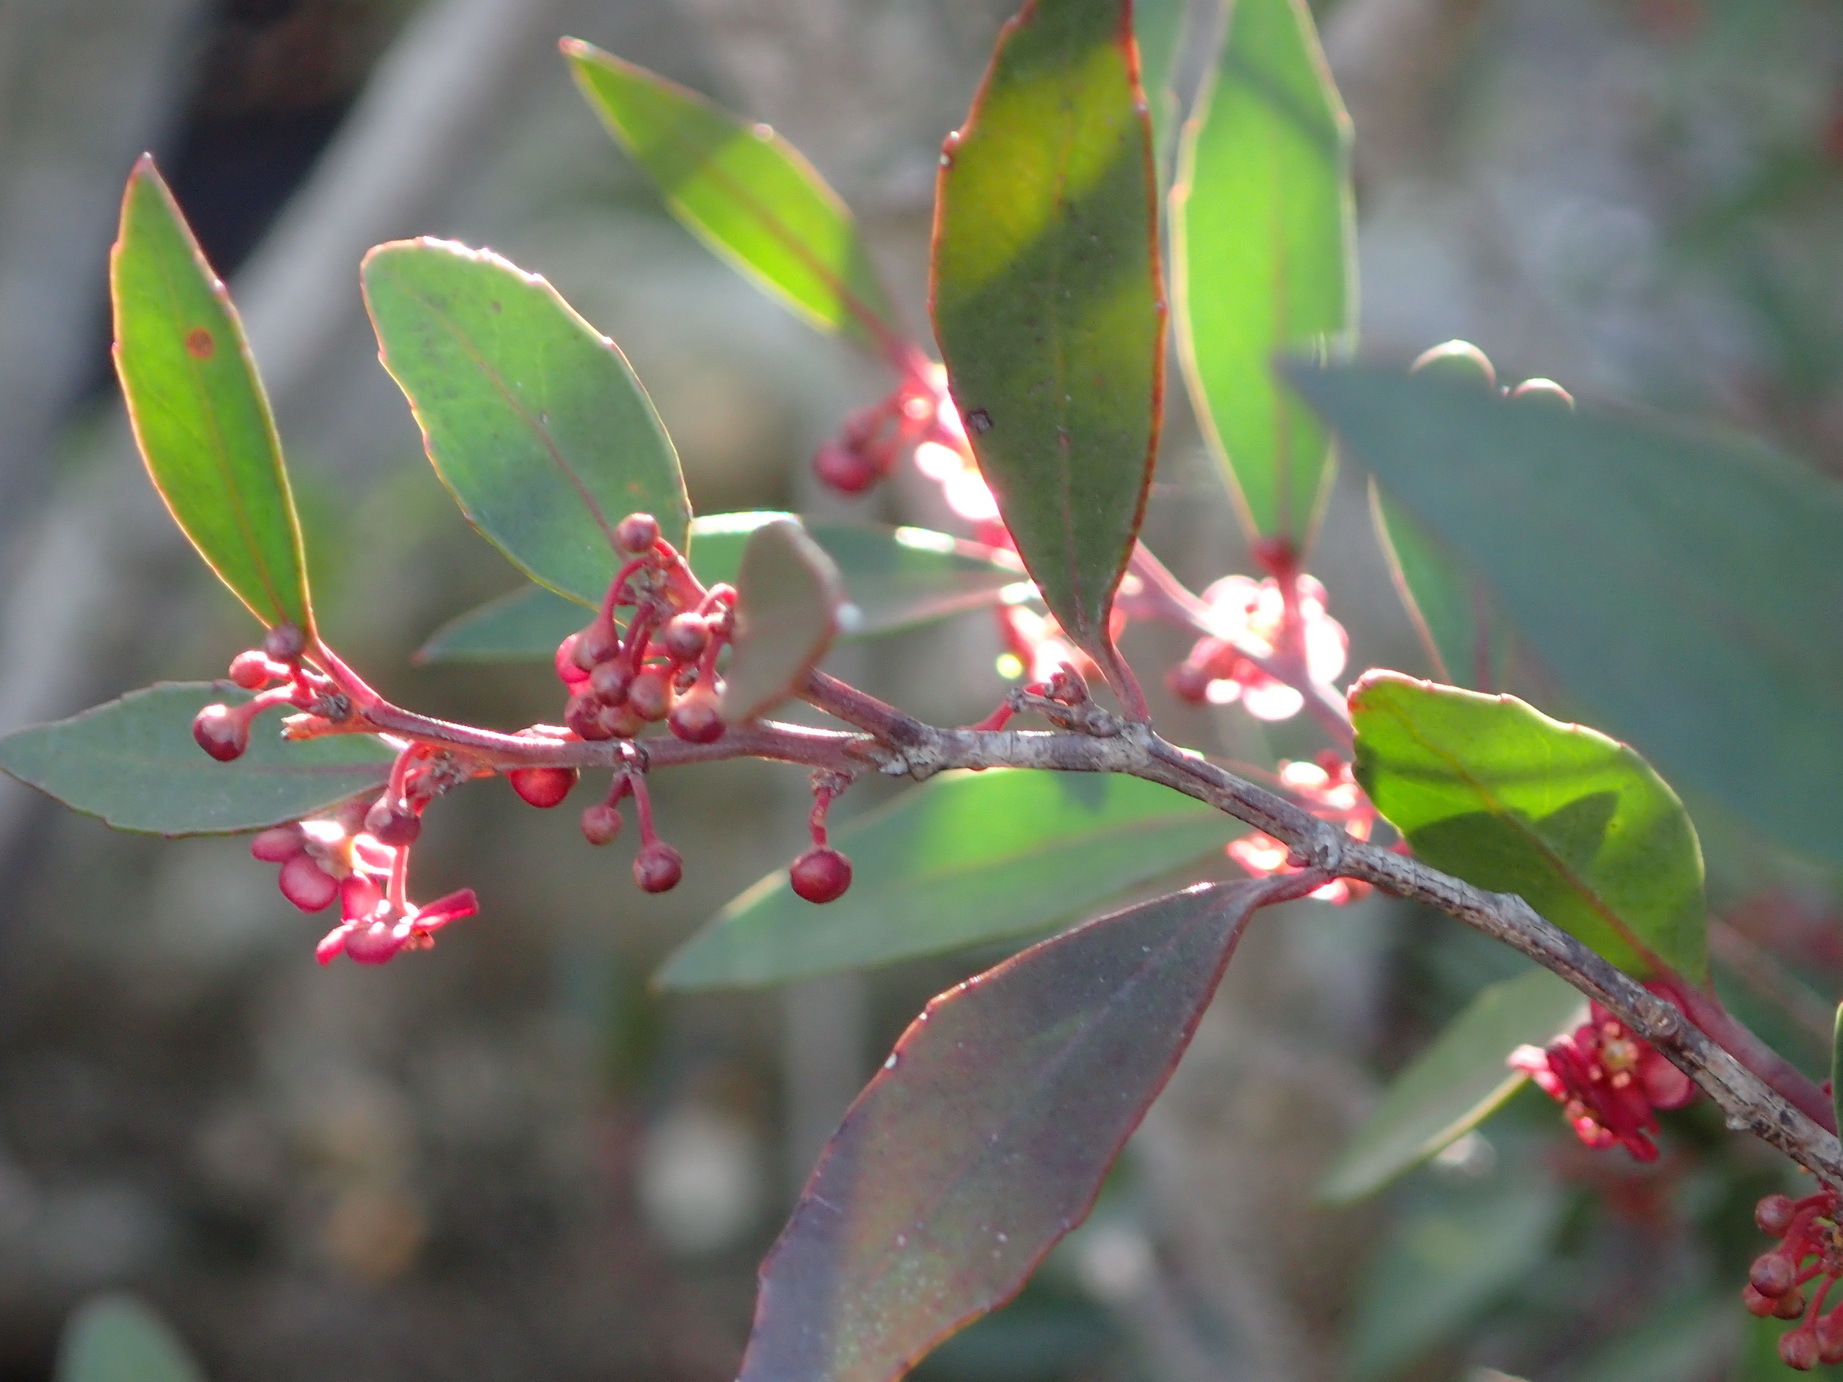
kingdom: Plantae
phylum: Tracheophyta
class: Magnoliopsida
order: Celastrales
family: Celastraceae
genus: Gymnosporia
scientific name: Gymnosporia acuminata
